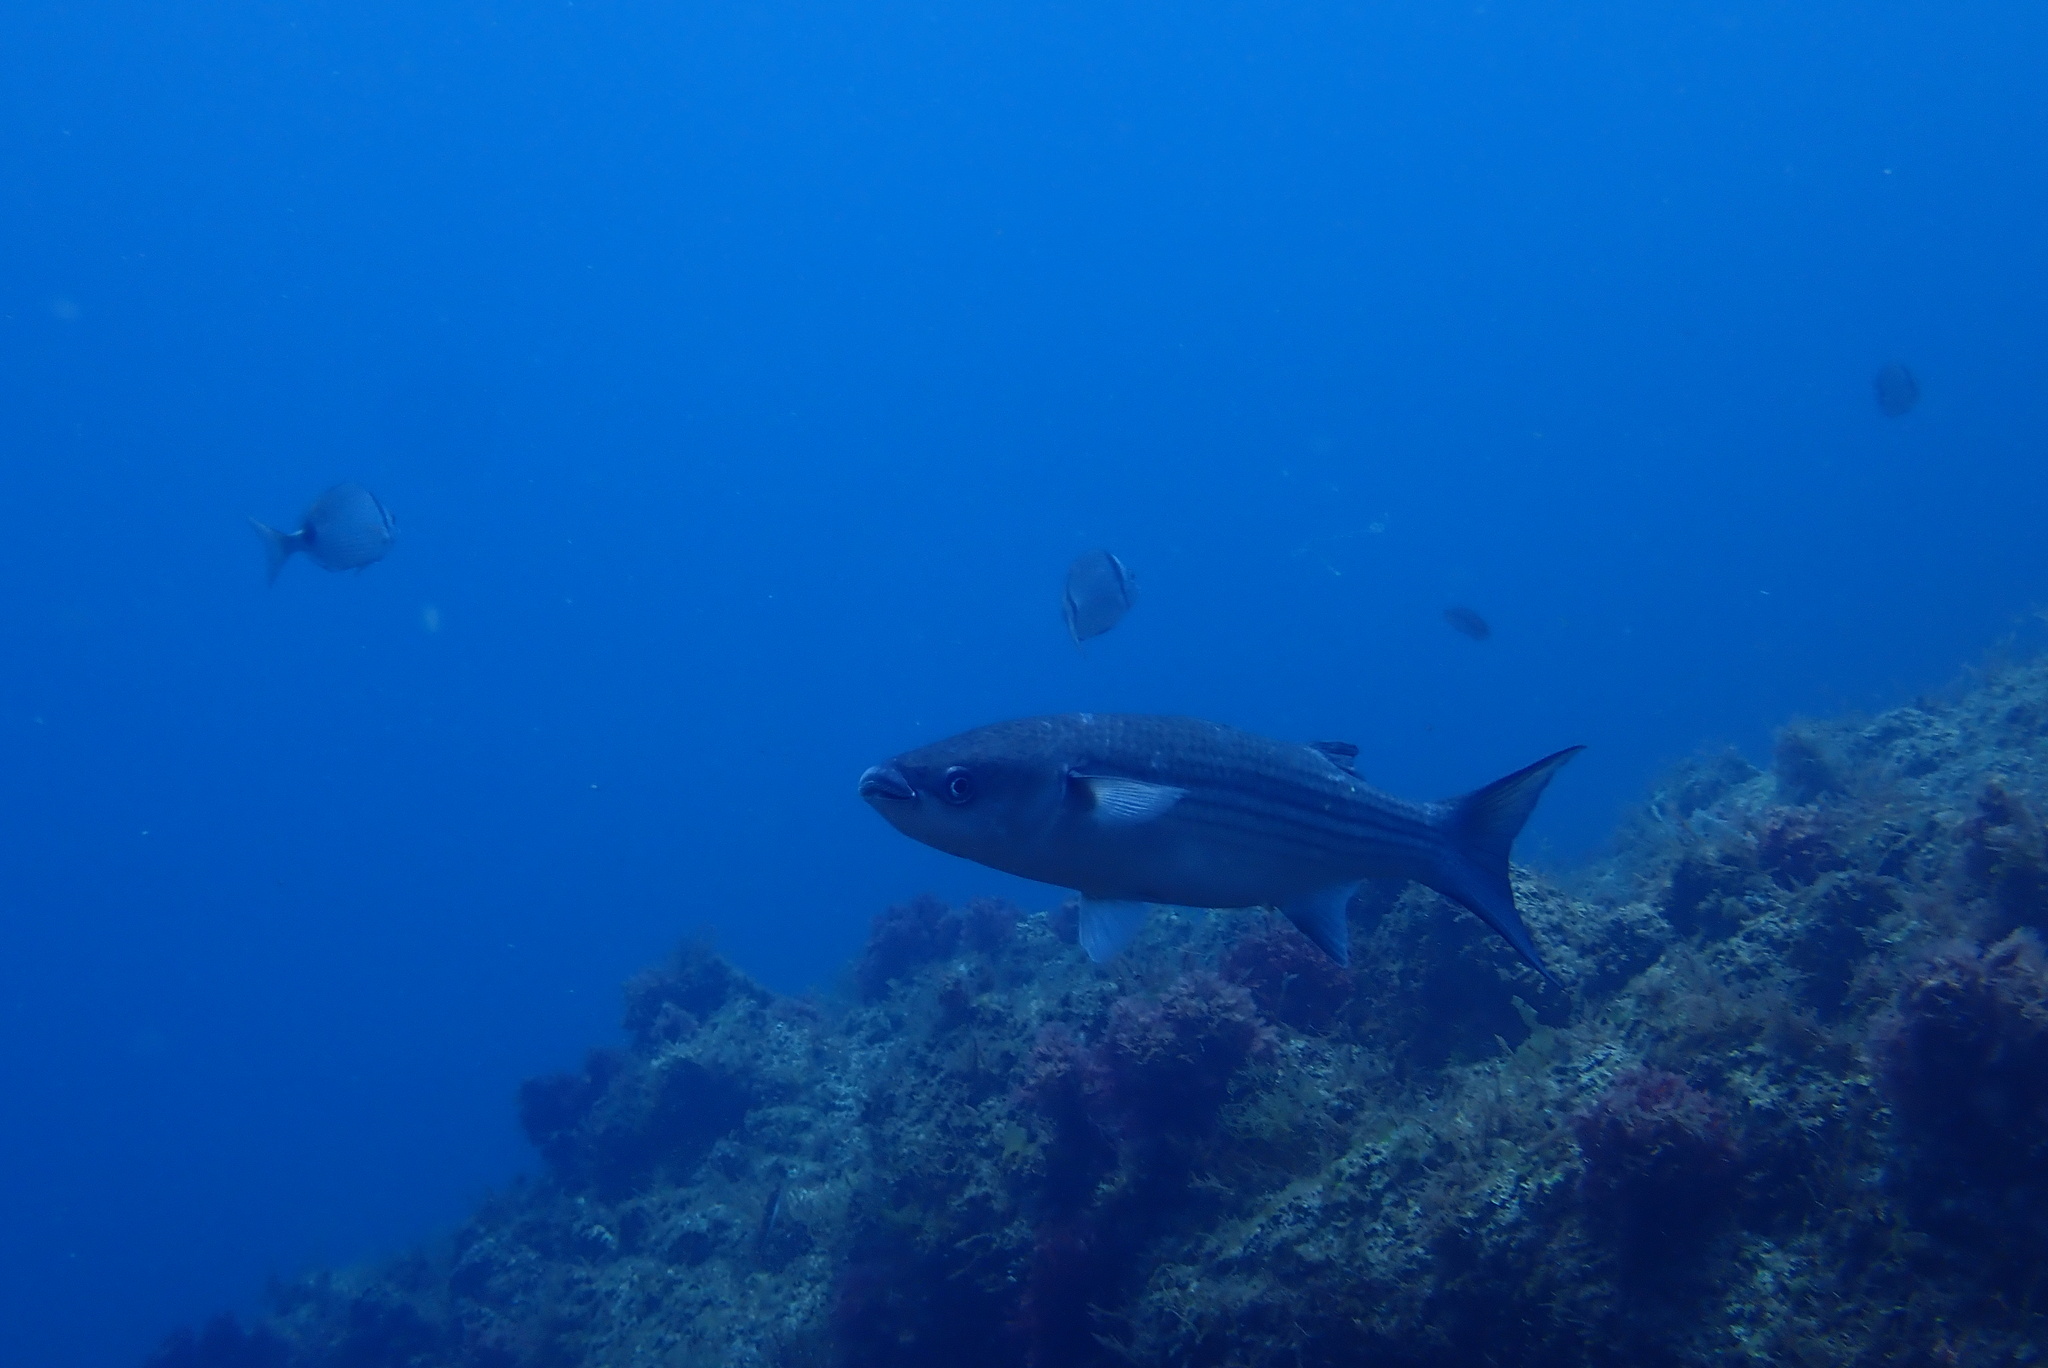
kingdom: Animalia
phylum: Chordata
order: Mugiliformes
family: Mugilidae
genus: Chelon
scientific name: Chelon labrosus
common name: Thick-lipped mullet
